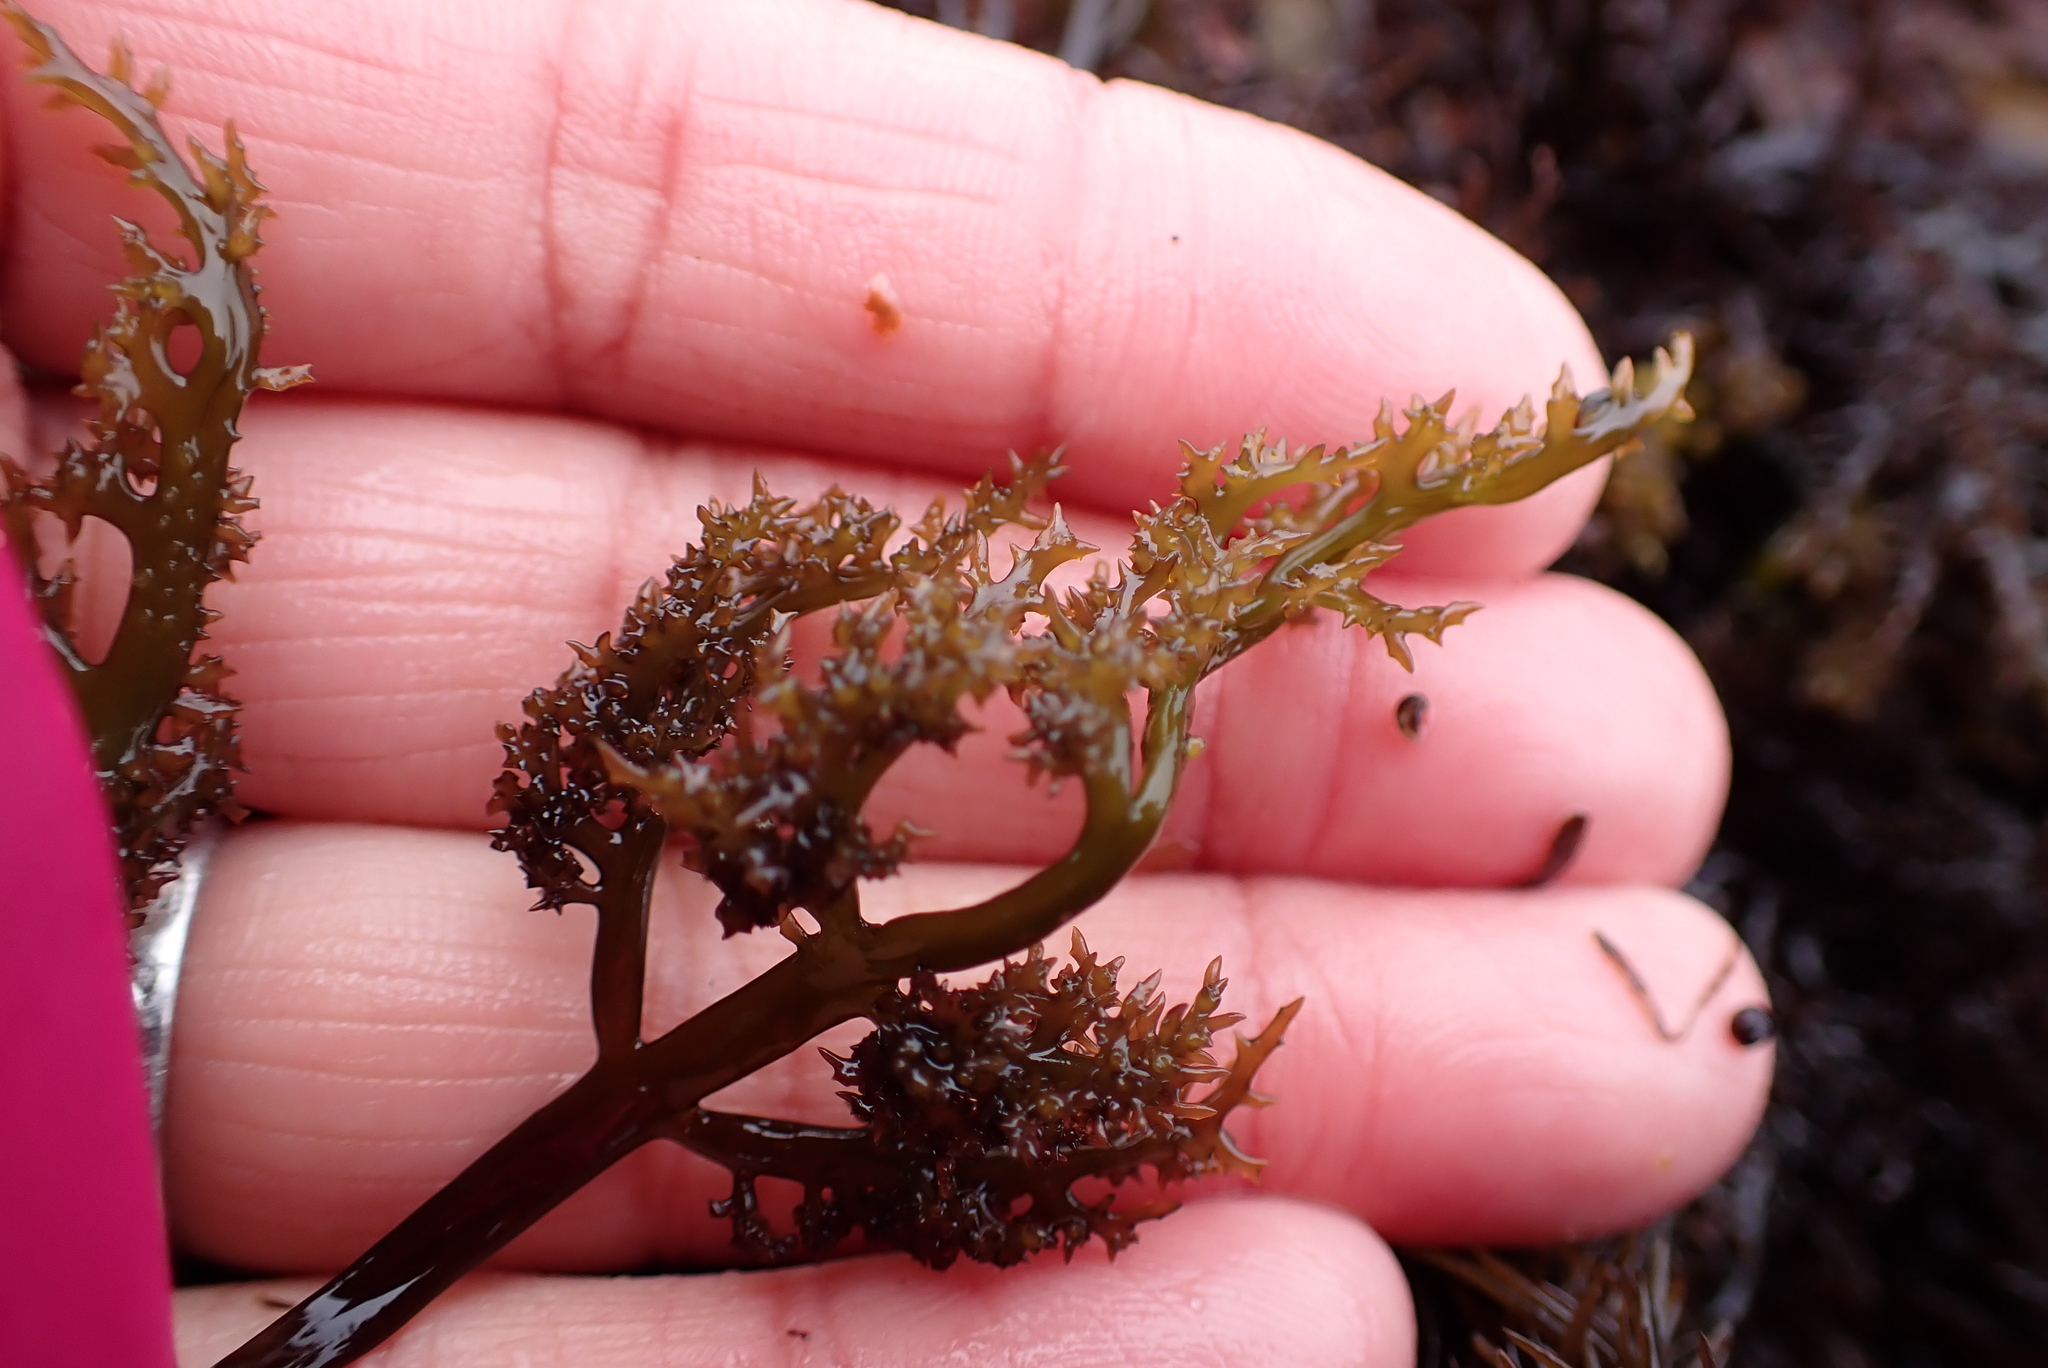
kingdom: Plantae
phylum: Rhodophyta
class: Florideophyceae
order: Rhodymeniales
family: Champiaceae
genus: Neogastroclonium
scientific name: Neogastroclonium subarticulatum
